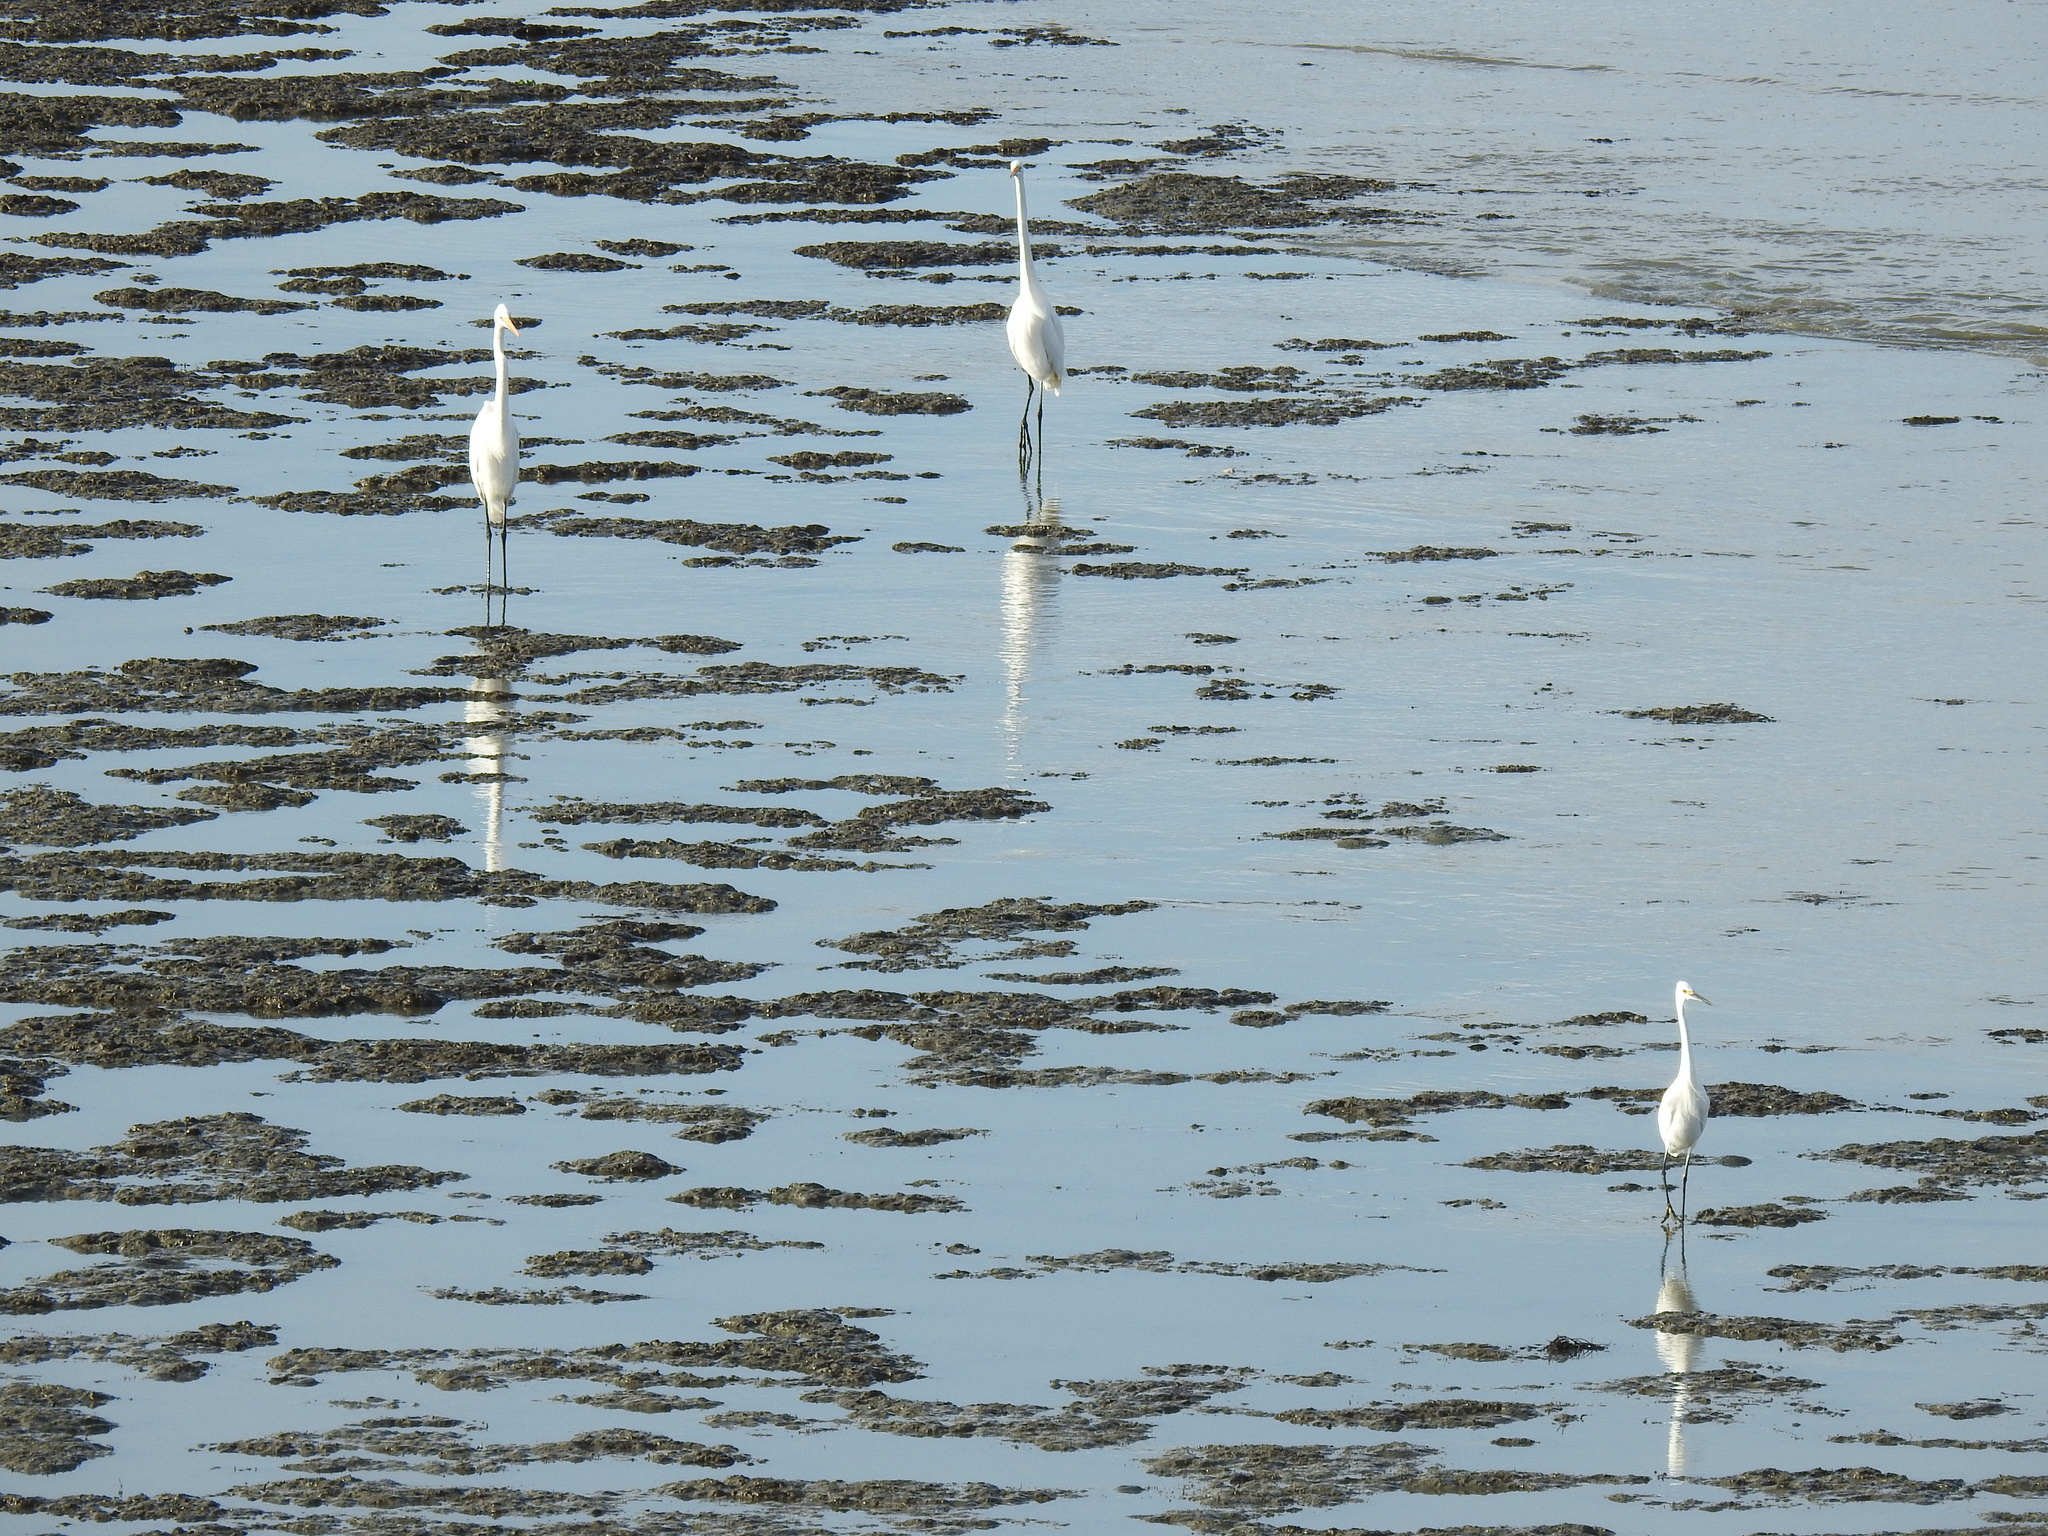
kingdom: Animalia
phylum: Chordata
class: Aves
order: Pelecaniformes
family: Ardeidae
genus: Ardea
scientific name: Ardea alba
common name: Great egret
